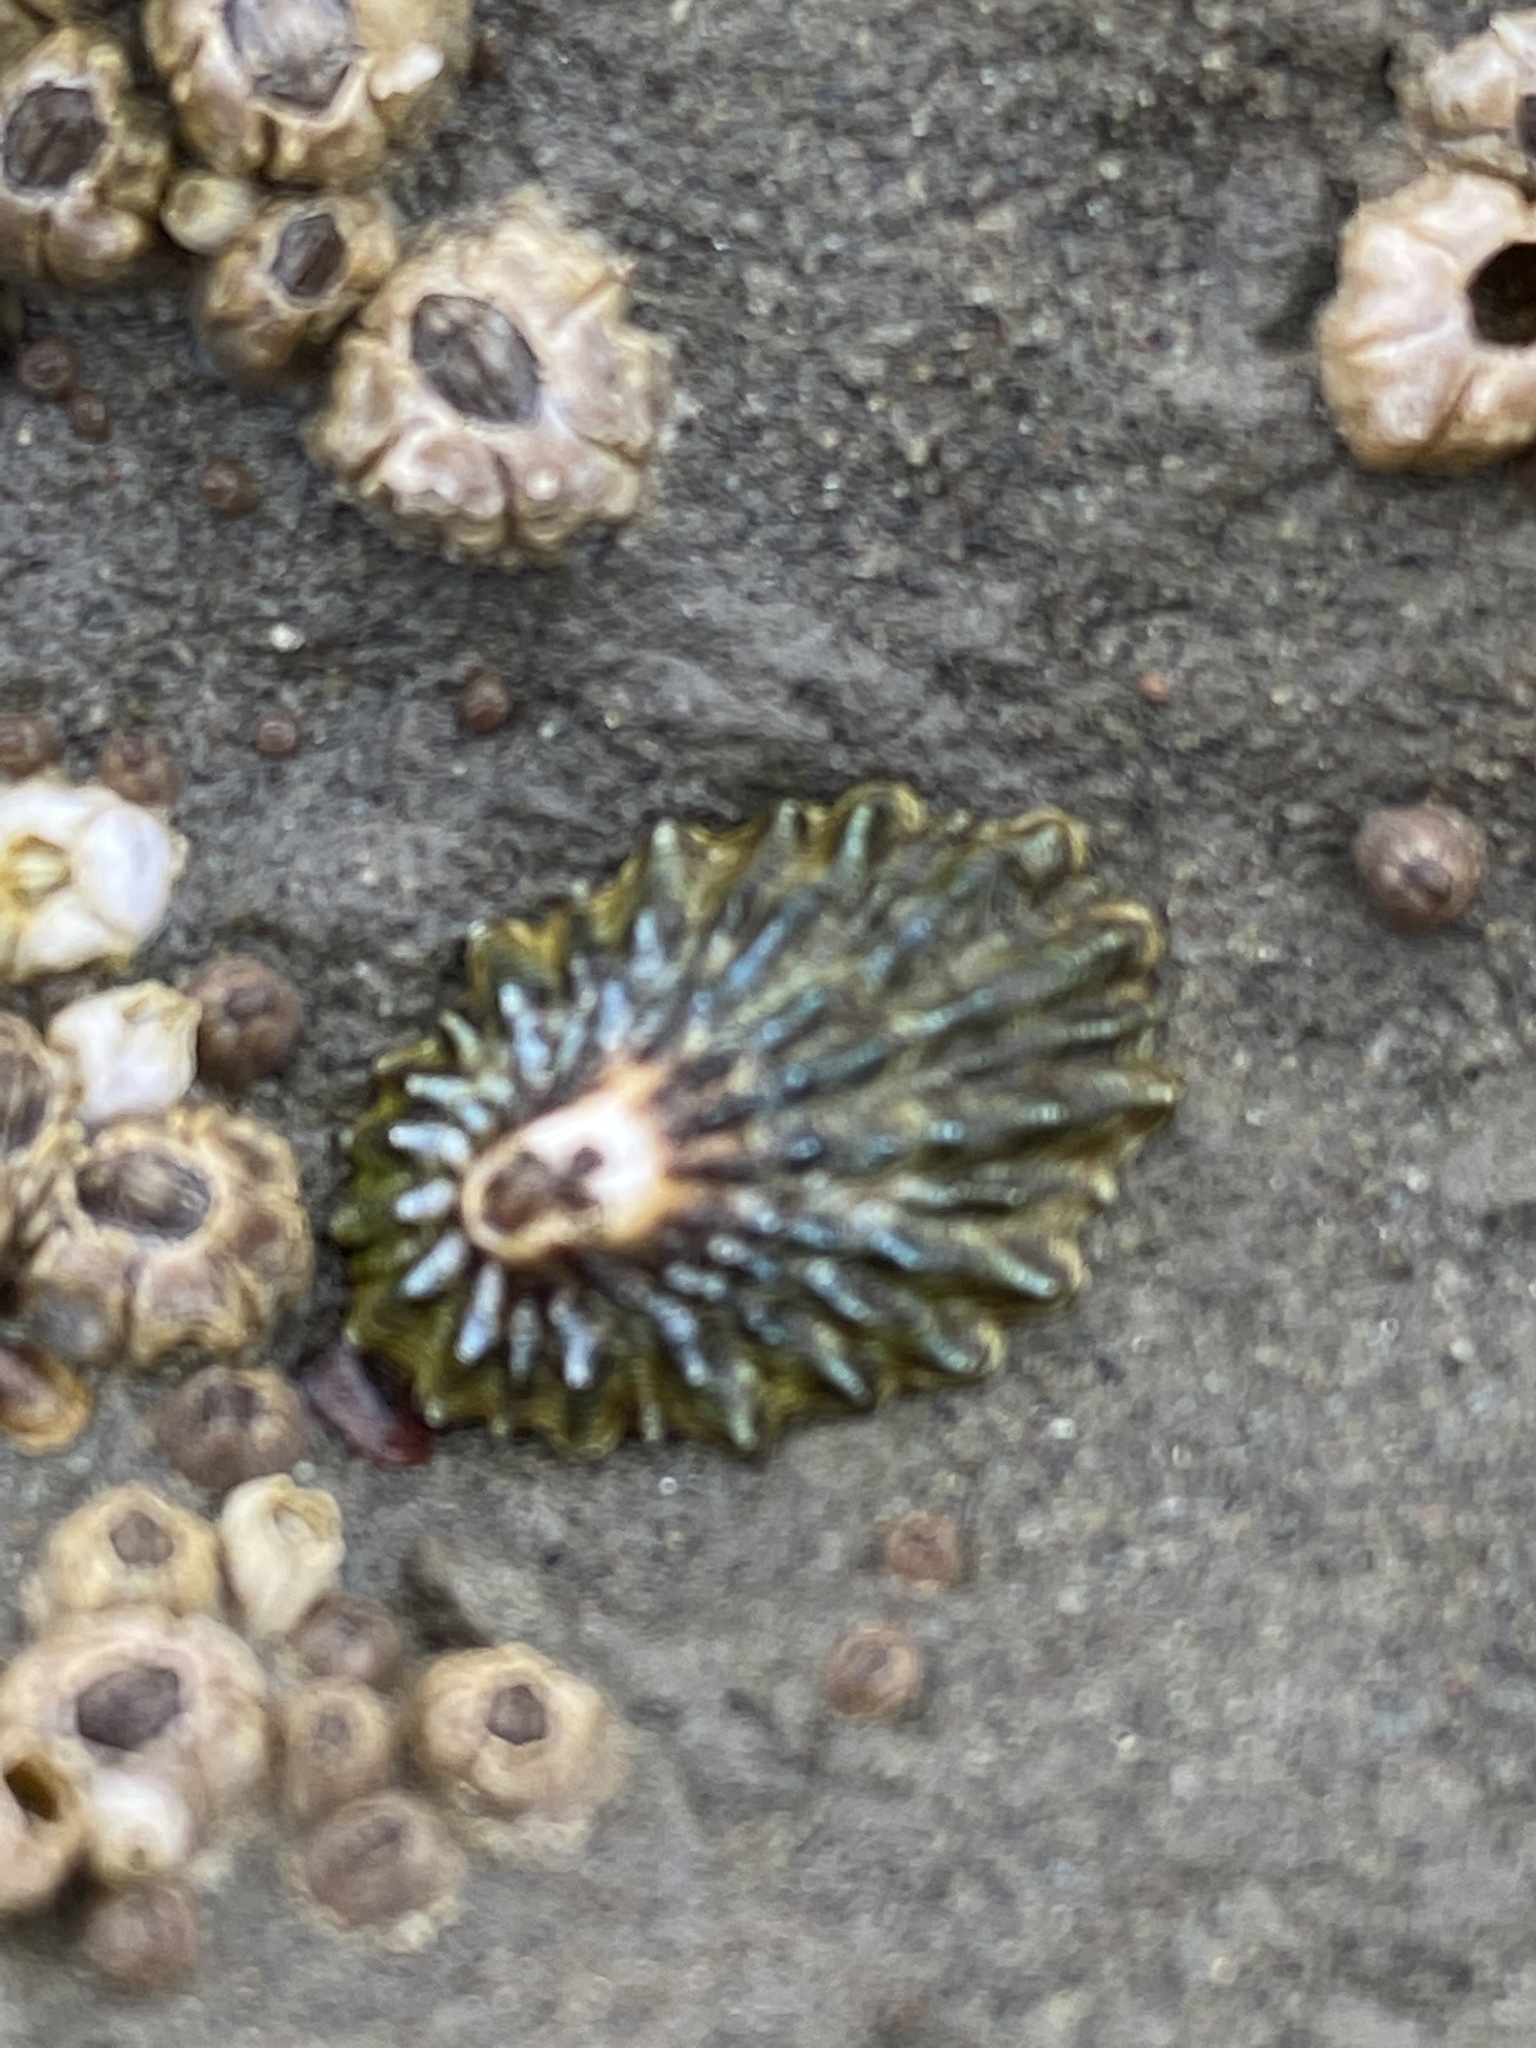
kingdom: Animalia
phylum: Mollusca
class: Gastropoda
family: Lottiidae
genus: Lottia
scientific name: Lottia scabra
